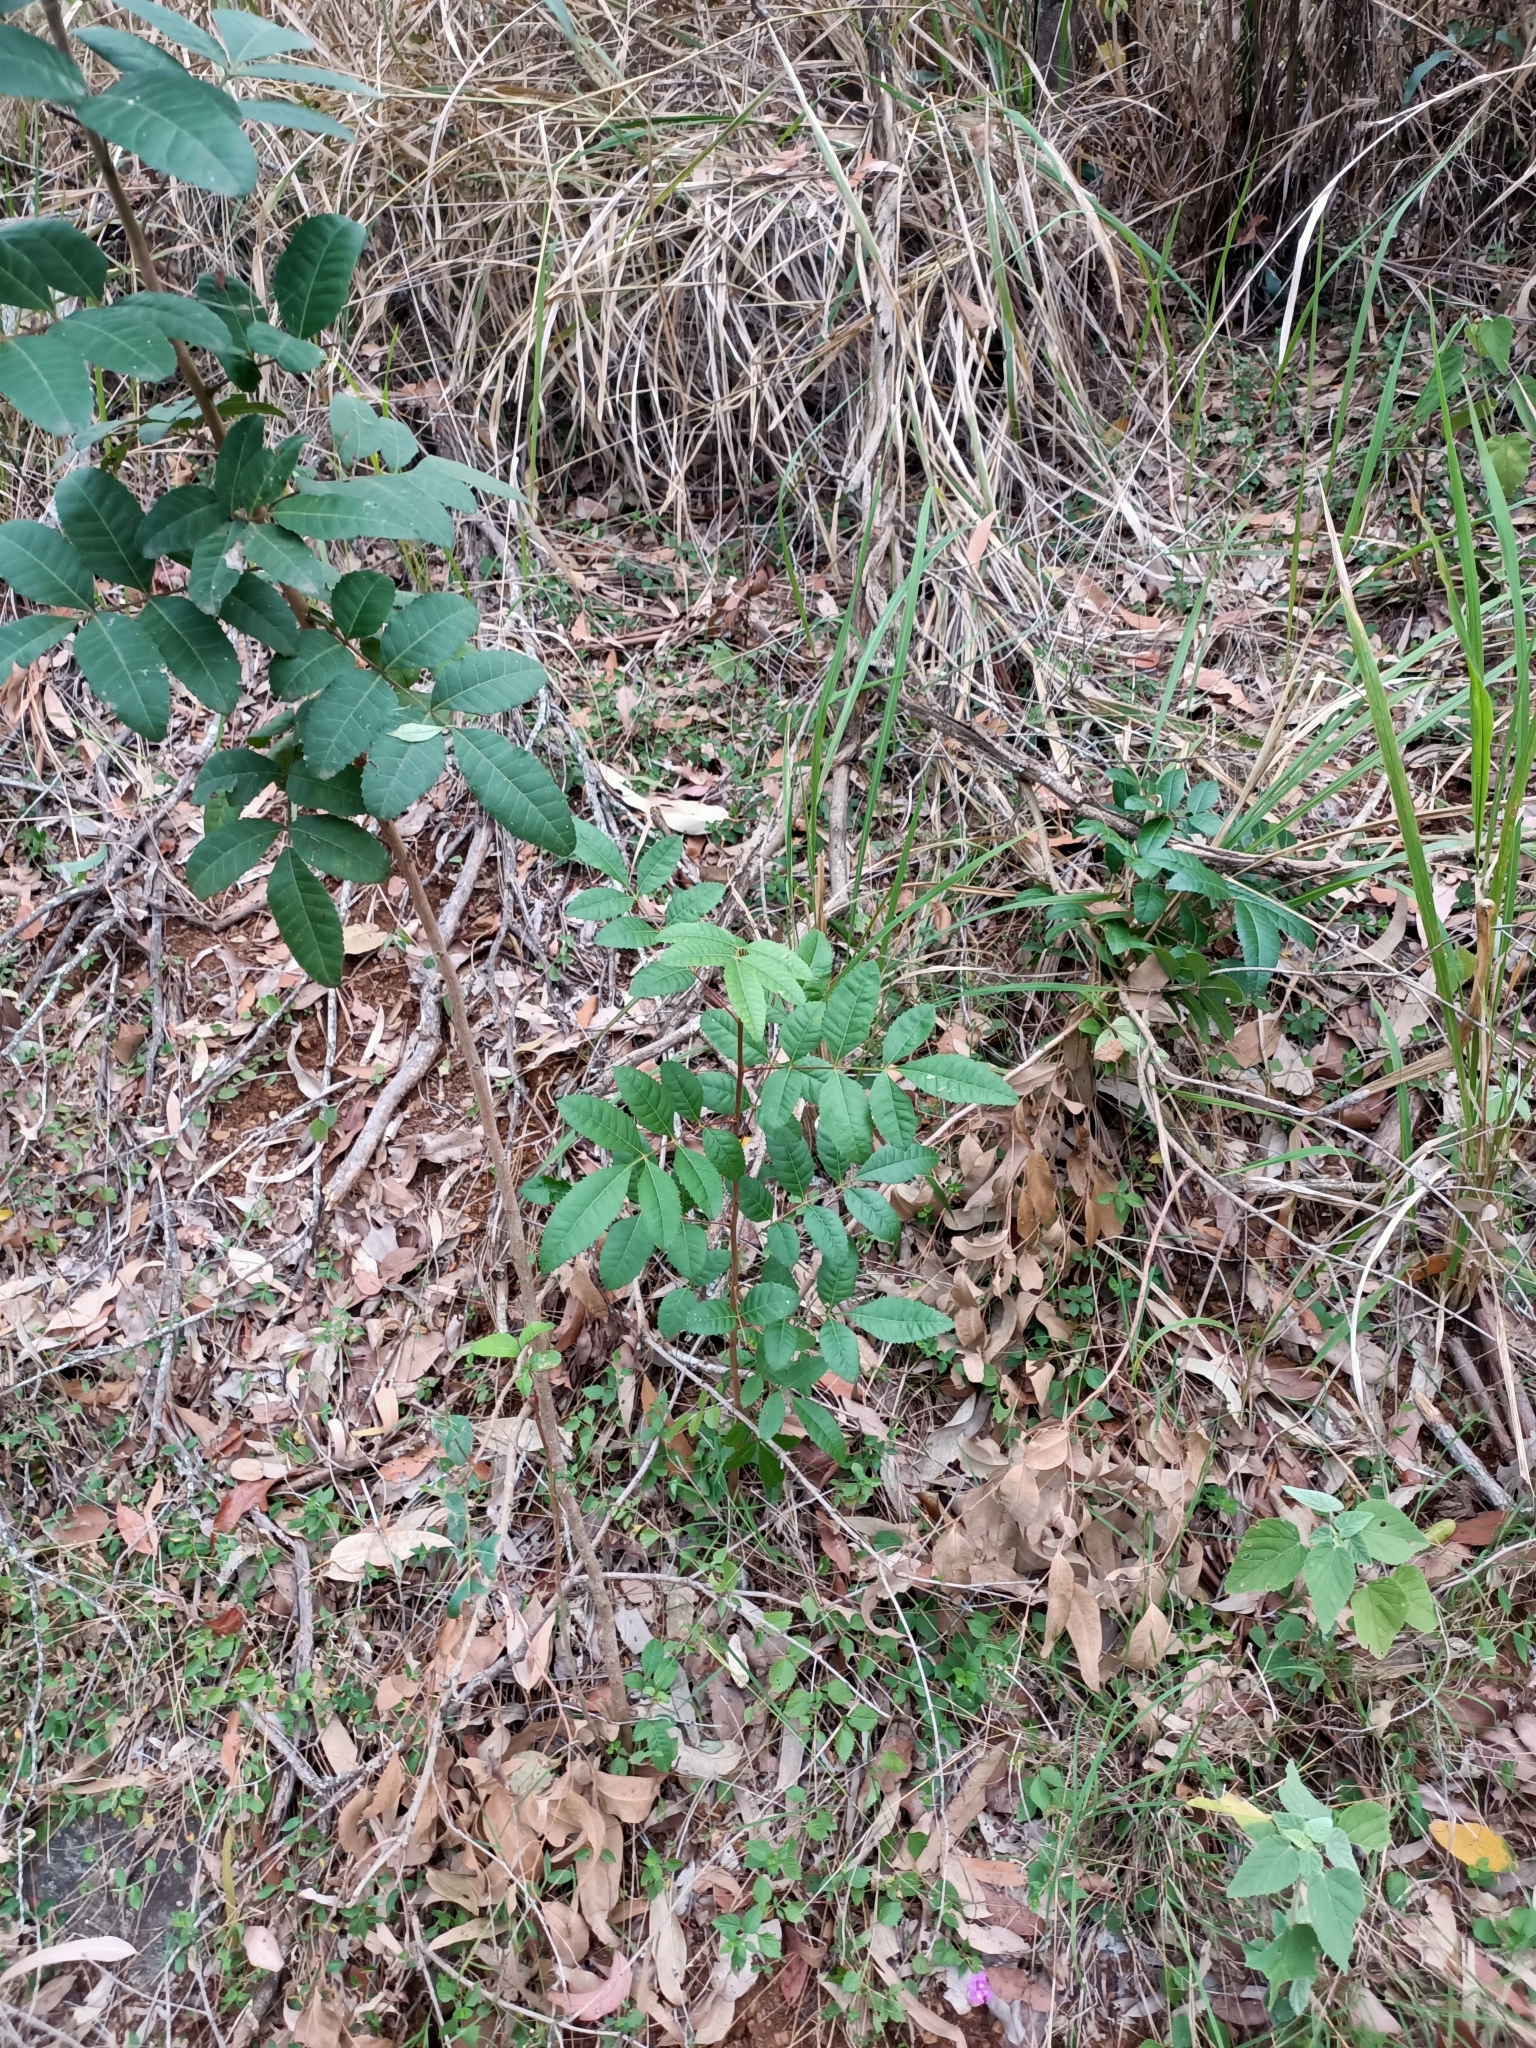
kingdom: Plantae
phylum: Tracheophyta
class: Magnoliopsida
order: Sapindales
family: Anacardiaceae
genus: Schinus
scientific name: Schinus terebinthifolia
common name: Brazilian peppertree
